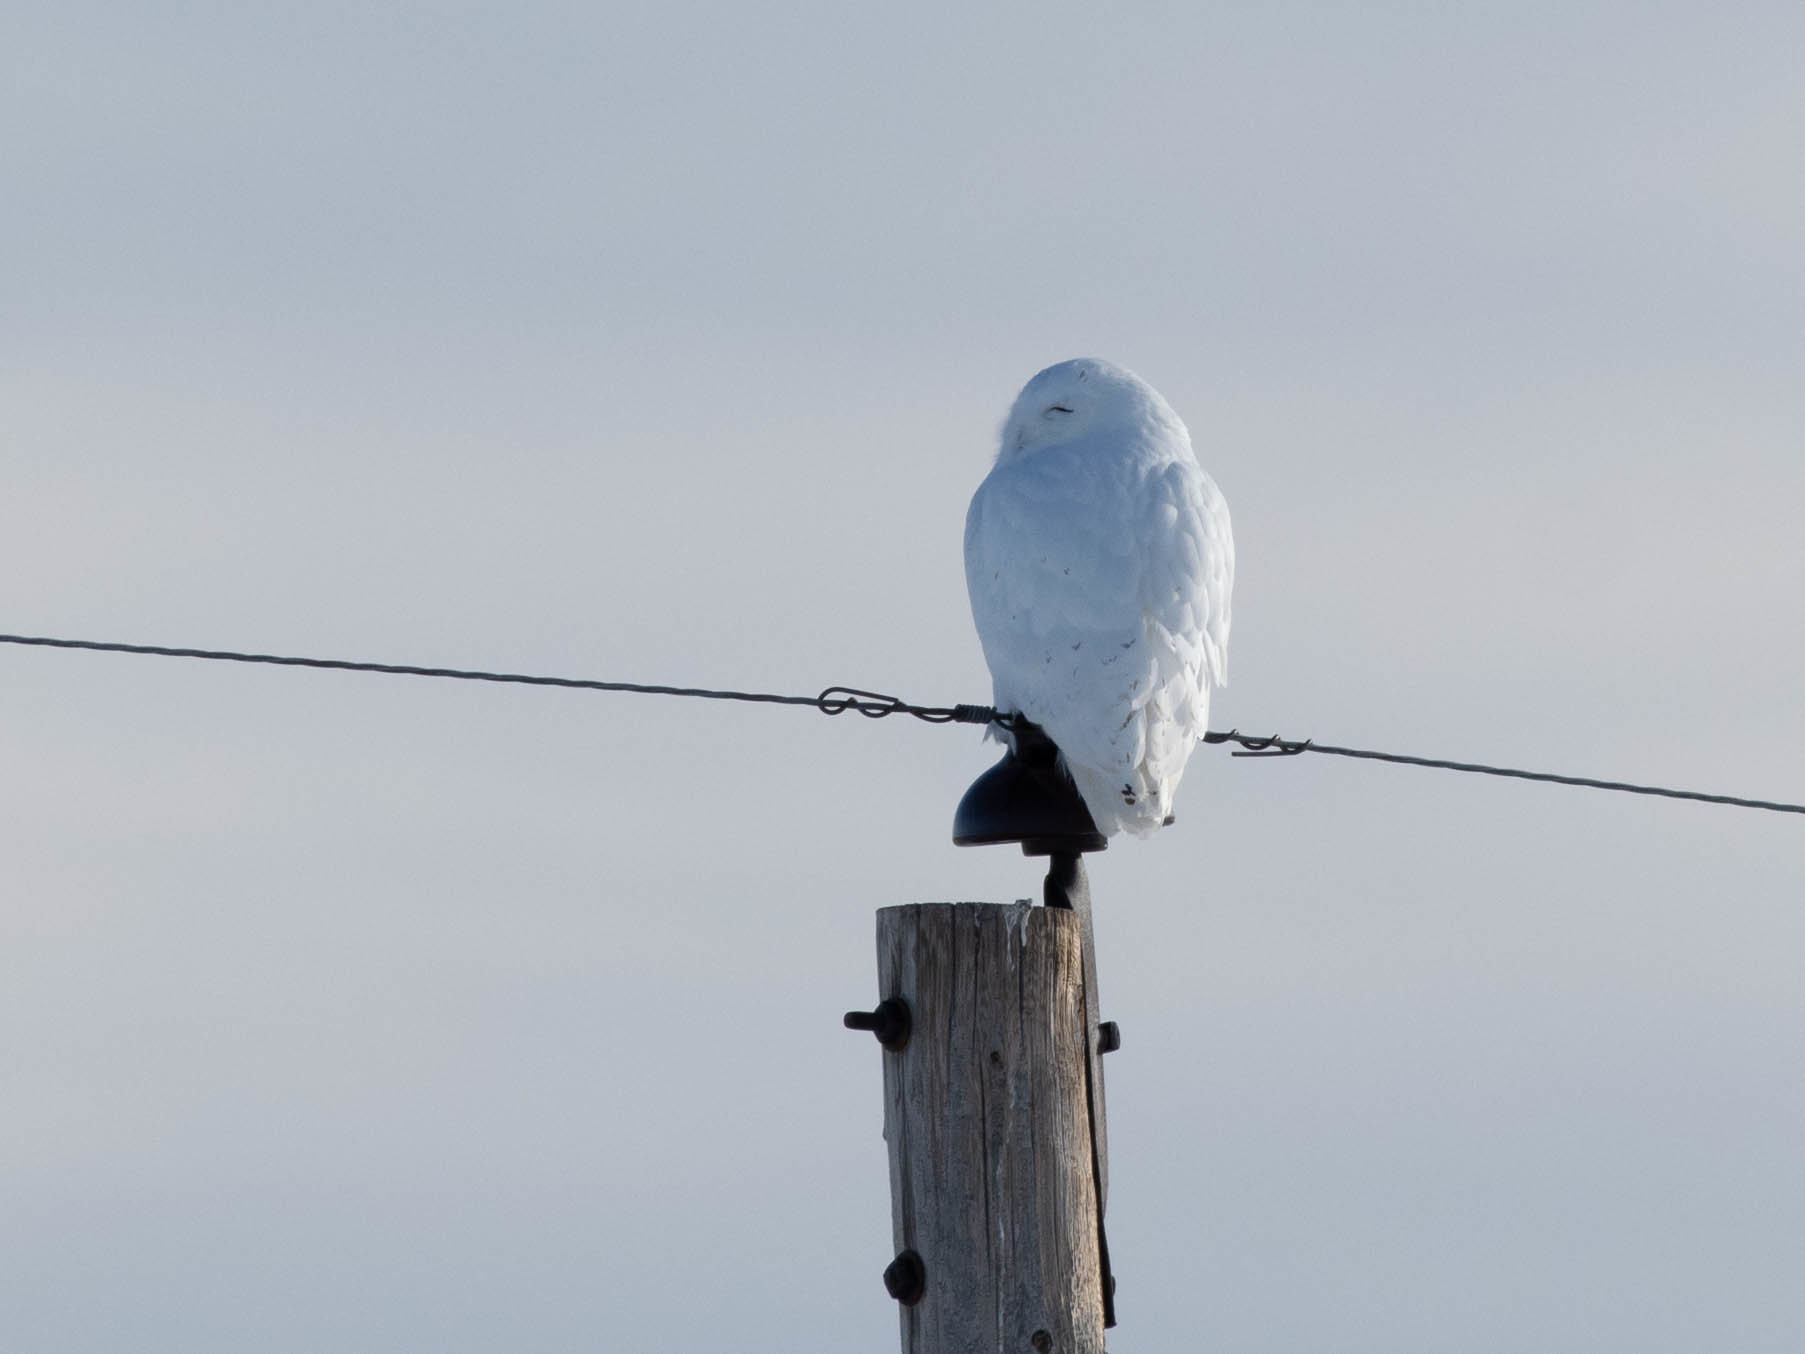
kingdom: Animalia
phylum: Chordata
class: Aves
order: Strigiformes
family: Strigidae
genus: Bubo
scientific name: Bubo scandiacus
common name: Snowy owl
